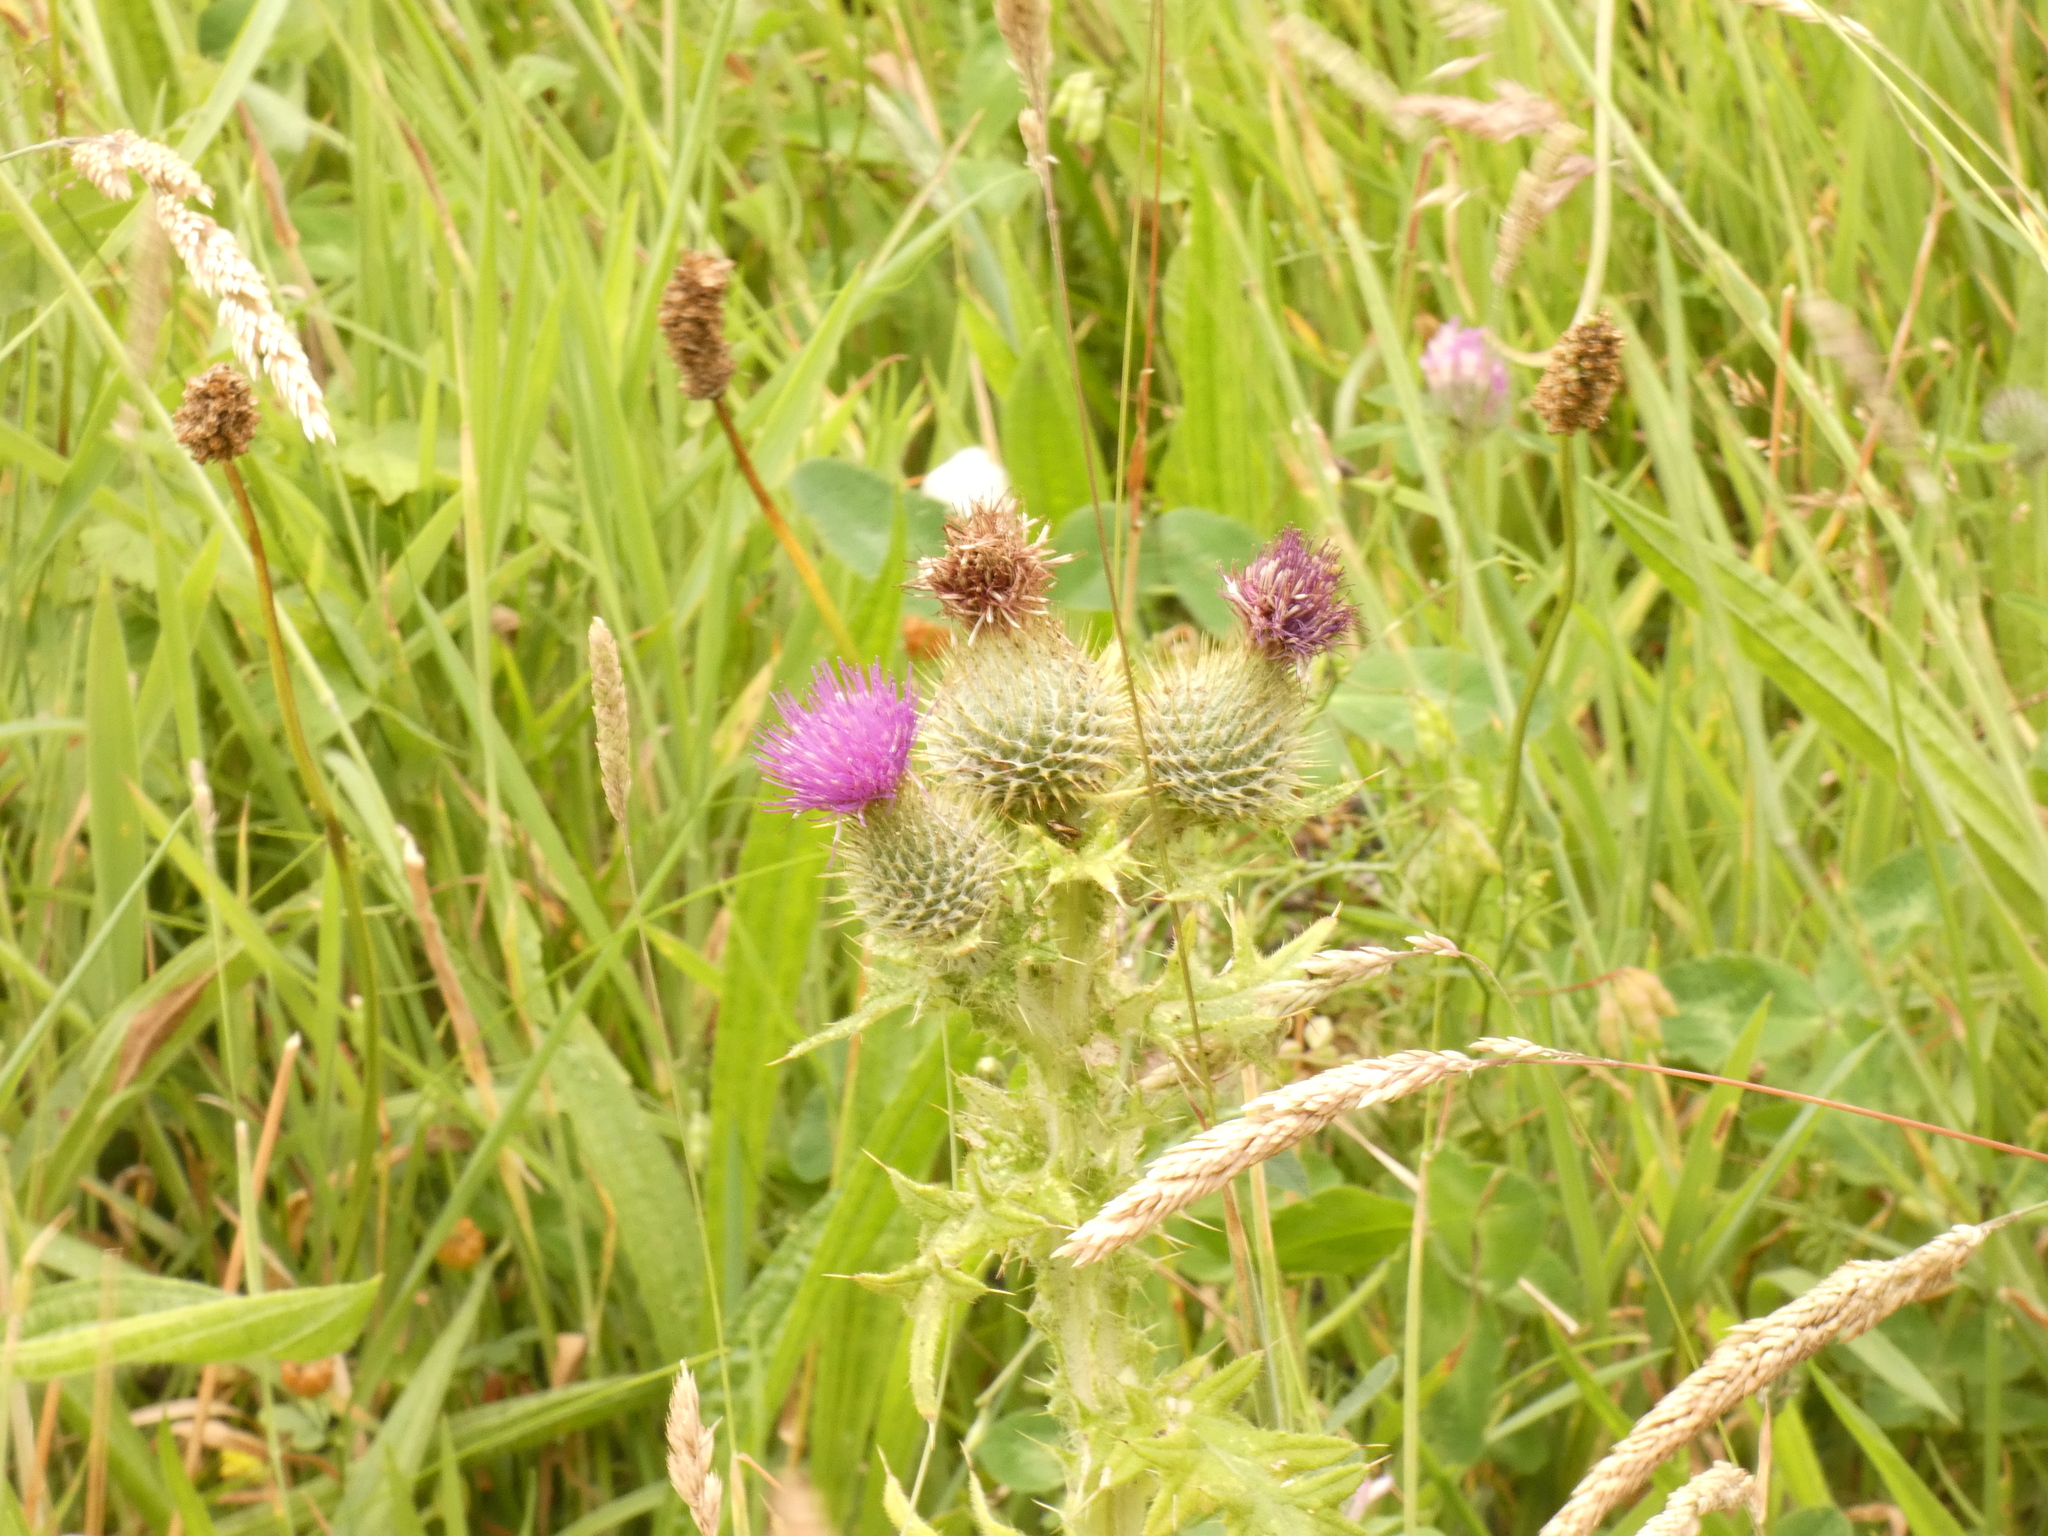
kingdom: Plantae
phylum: Tracheophyta
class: Magnoliopsida
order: Asterales
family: Asteraceae
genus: Cirsium
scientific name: Cirsium vulgare
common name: Bull thistle
